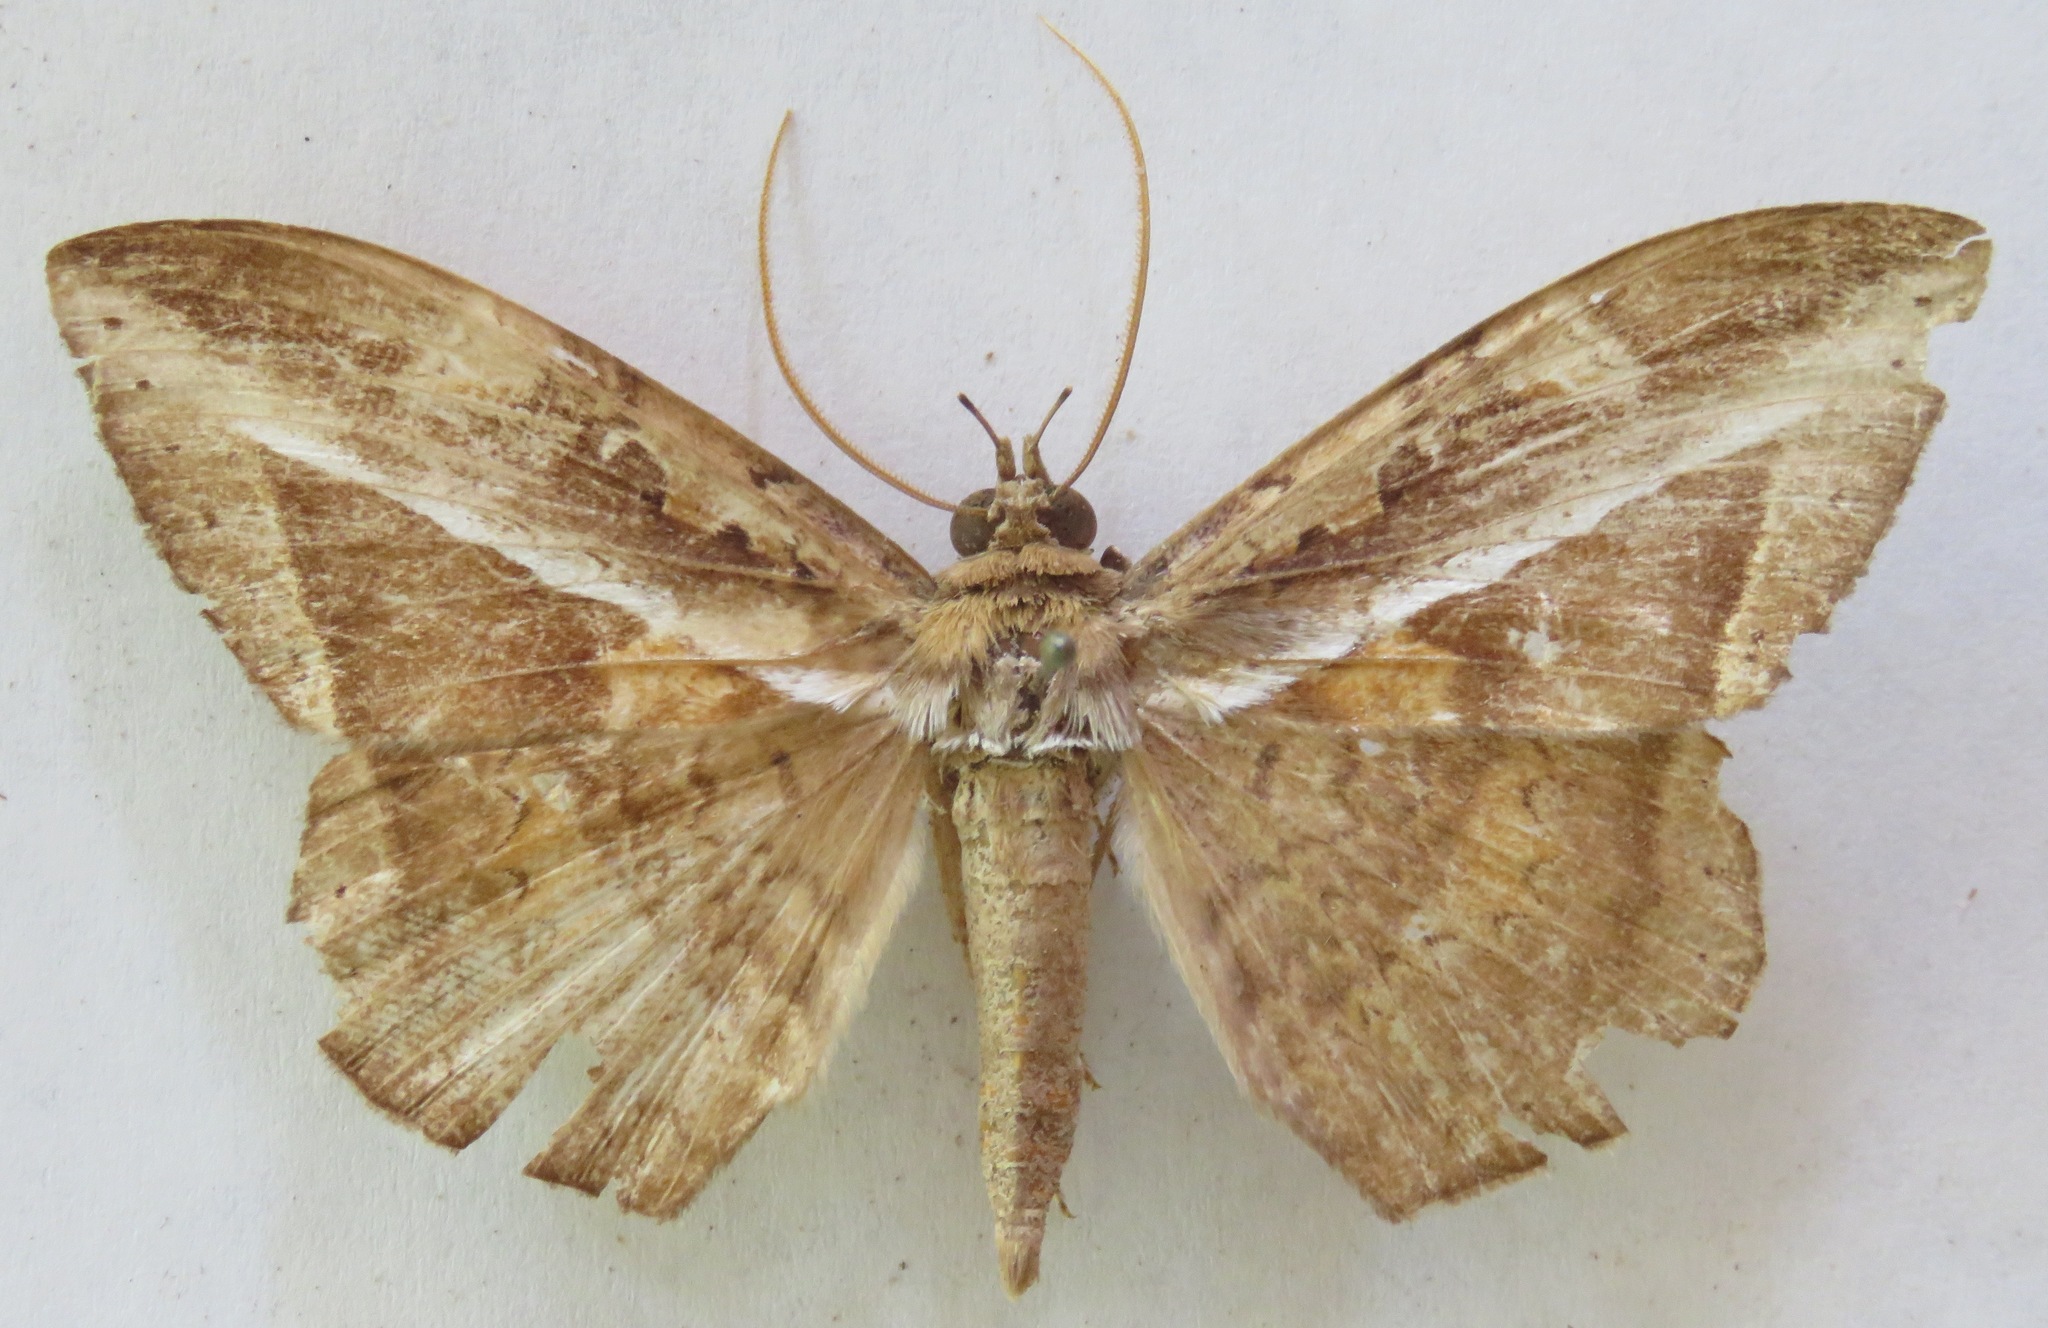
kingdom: Animalia
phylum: Arthropoda
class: Insecta
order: Lepidoptera
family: Erebidae
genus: Hemeroblemma
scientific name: Hemeroblemma opigena
